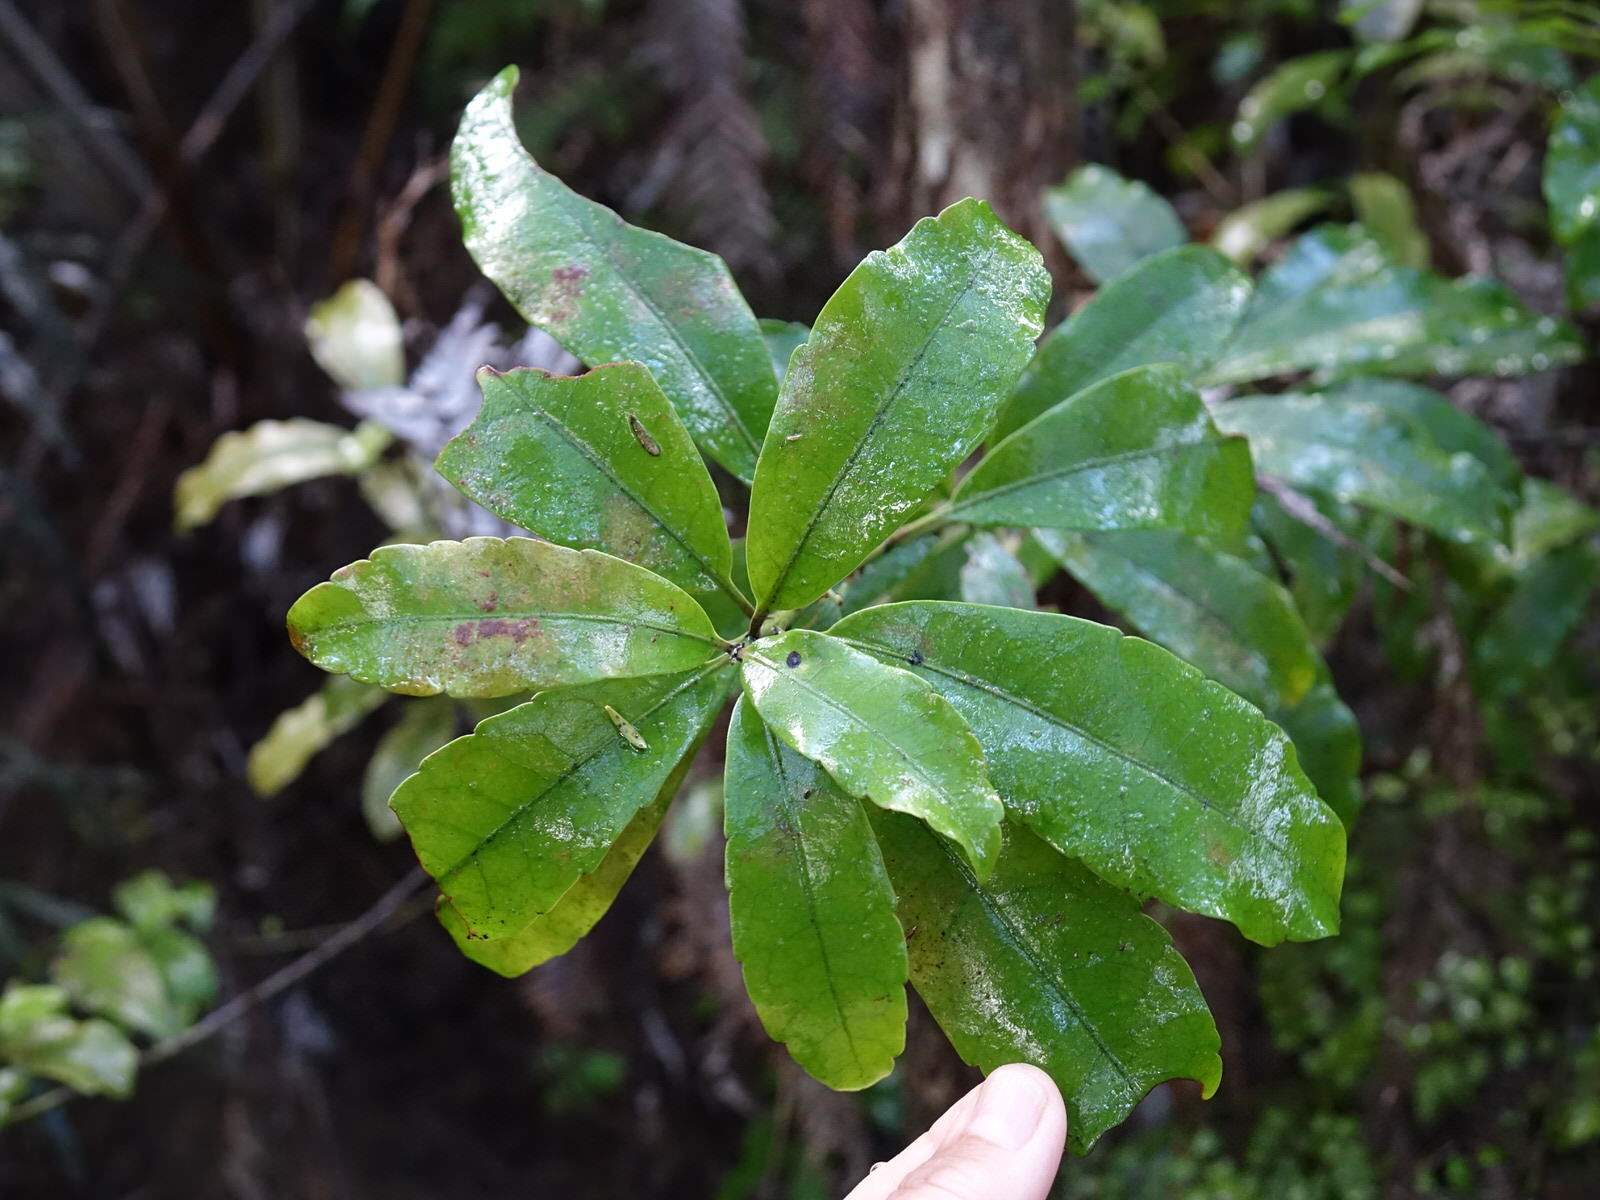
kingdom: Plantae
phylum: Tracheophyta
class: Magnoliopsida
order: Asterales
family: Alseuosmiaceae
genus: Alseuosmia
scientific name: Alseuosmia macrophylla
